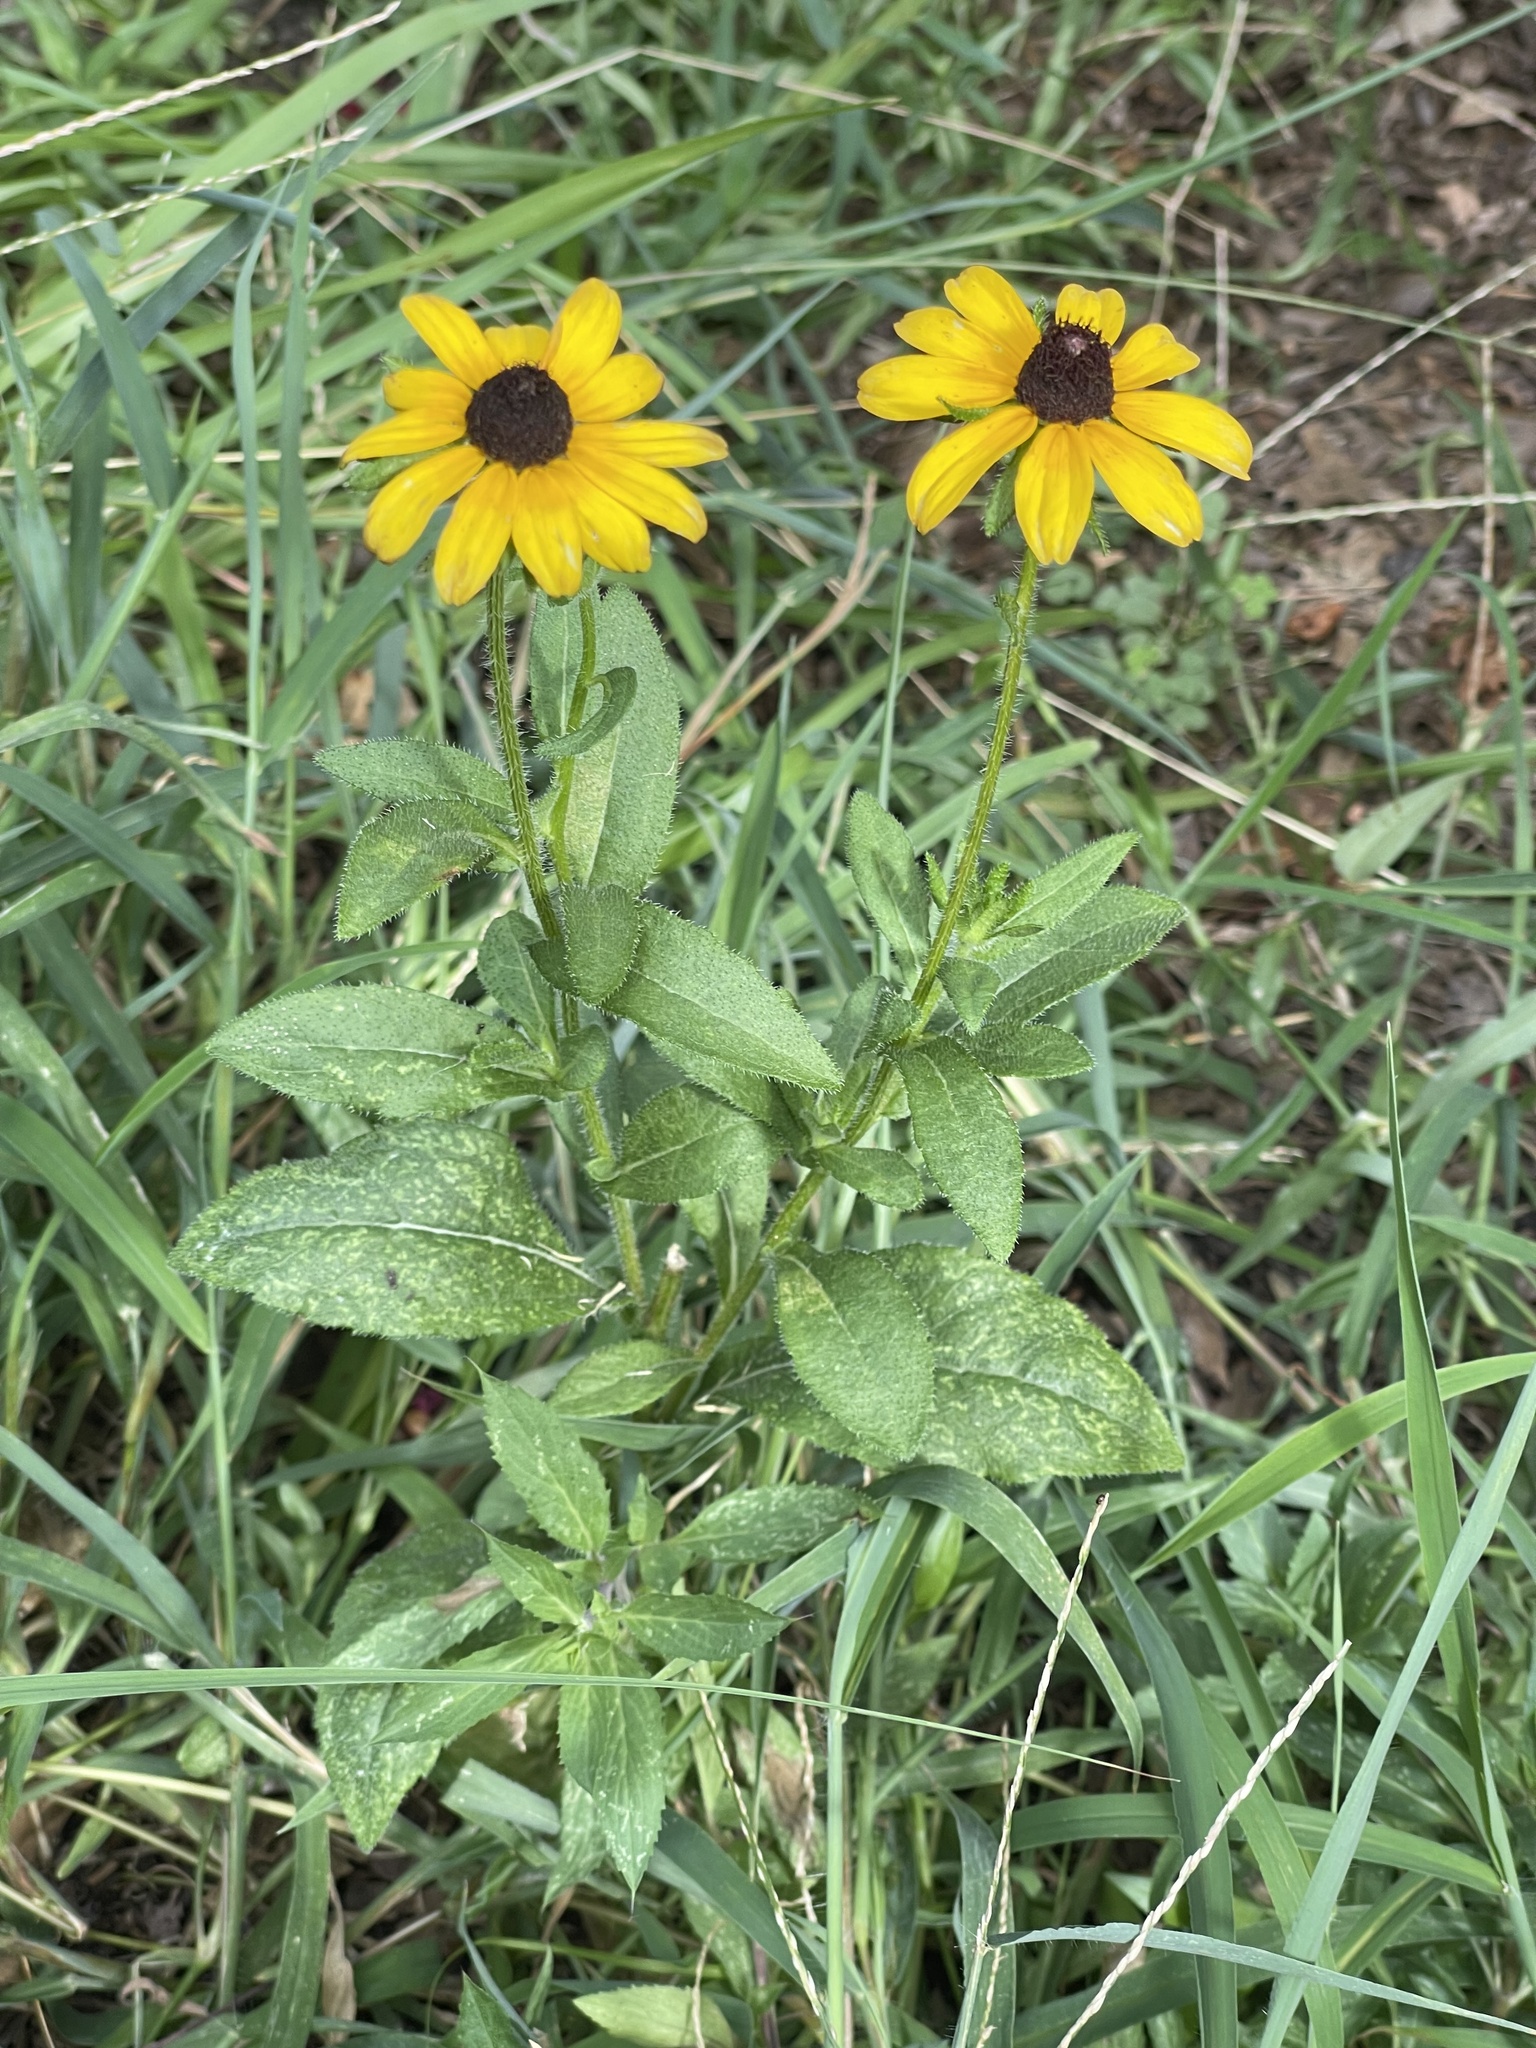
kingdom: Plantae
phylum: Tracheophyta
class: Magnoliopsida
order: Asterales
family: Asteraceae
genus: Rudbeckia
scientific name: Rudbeckia hirta
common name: Black-eyed-susan
